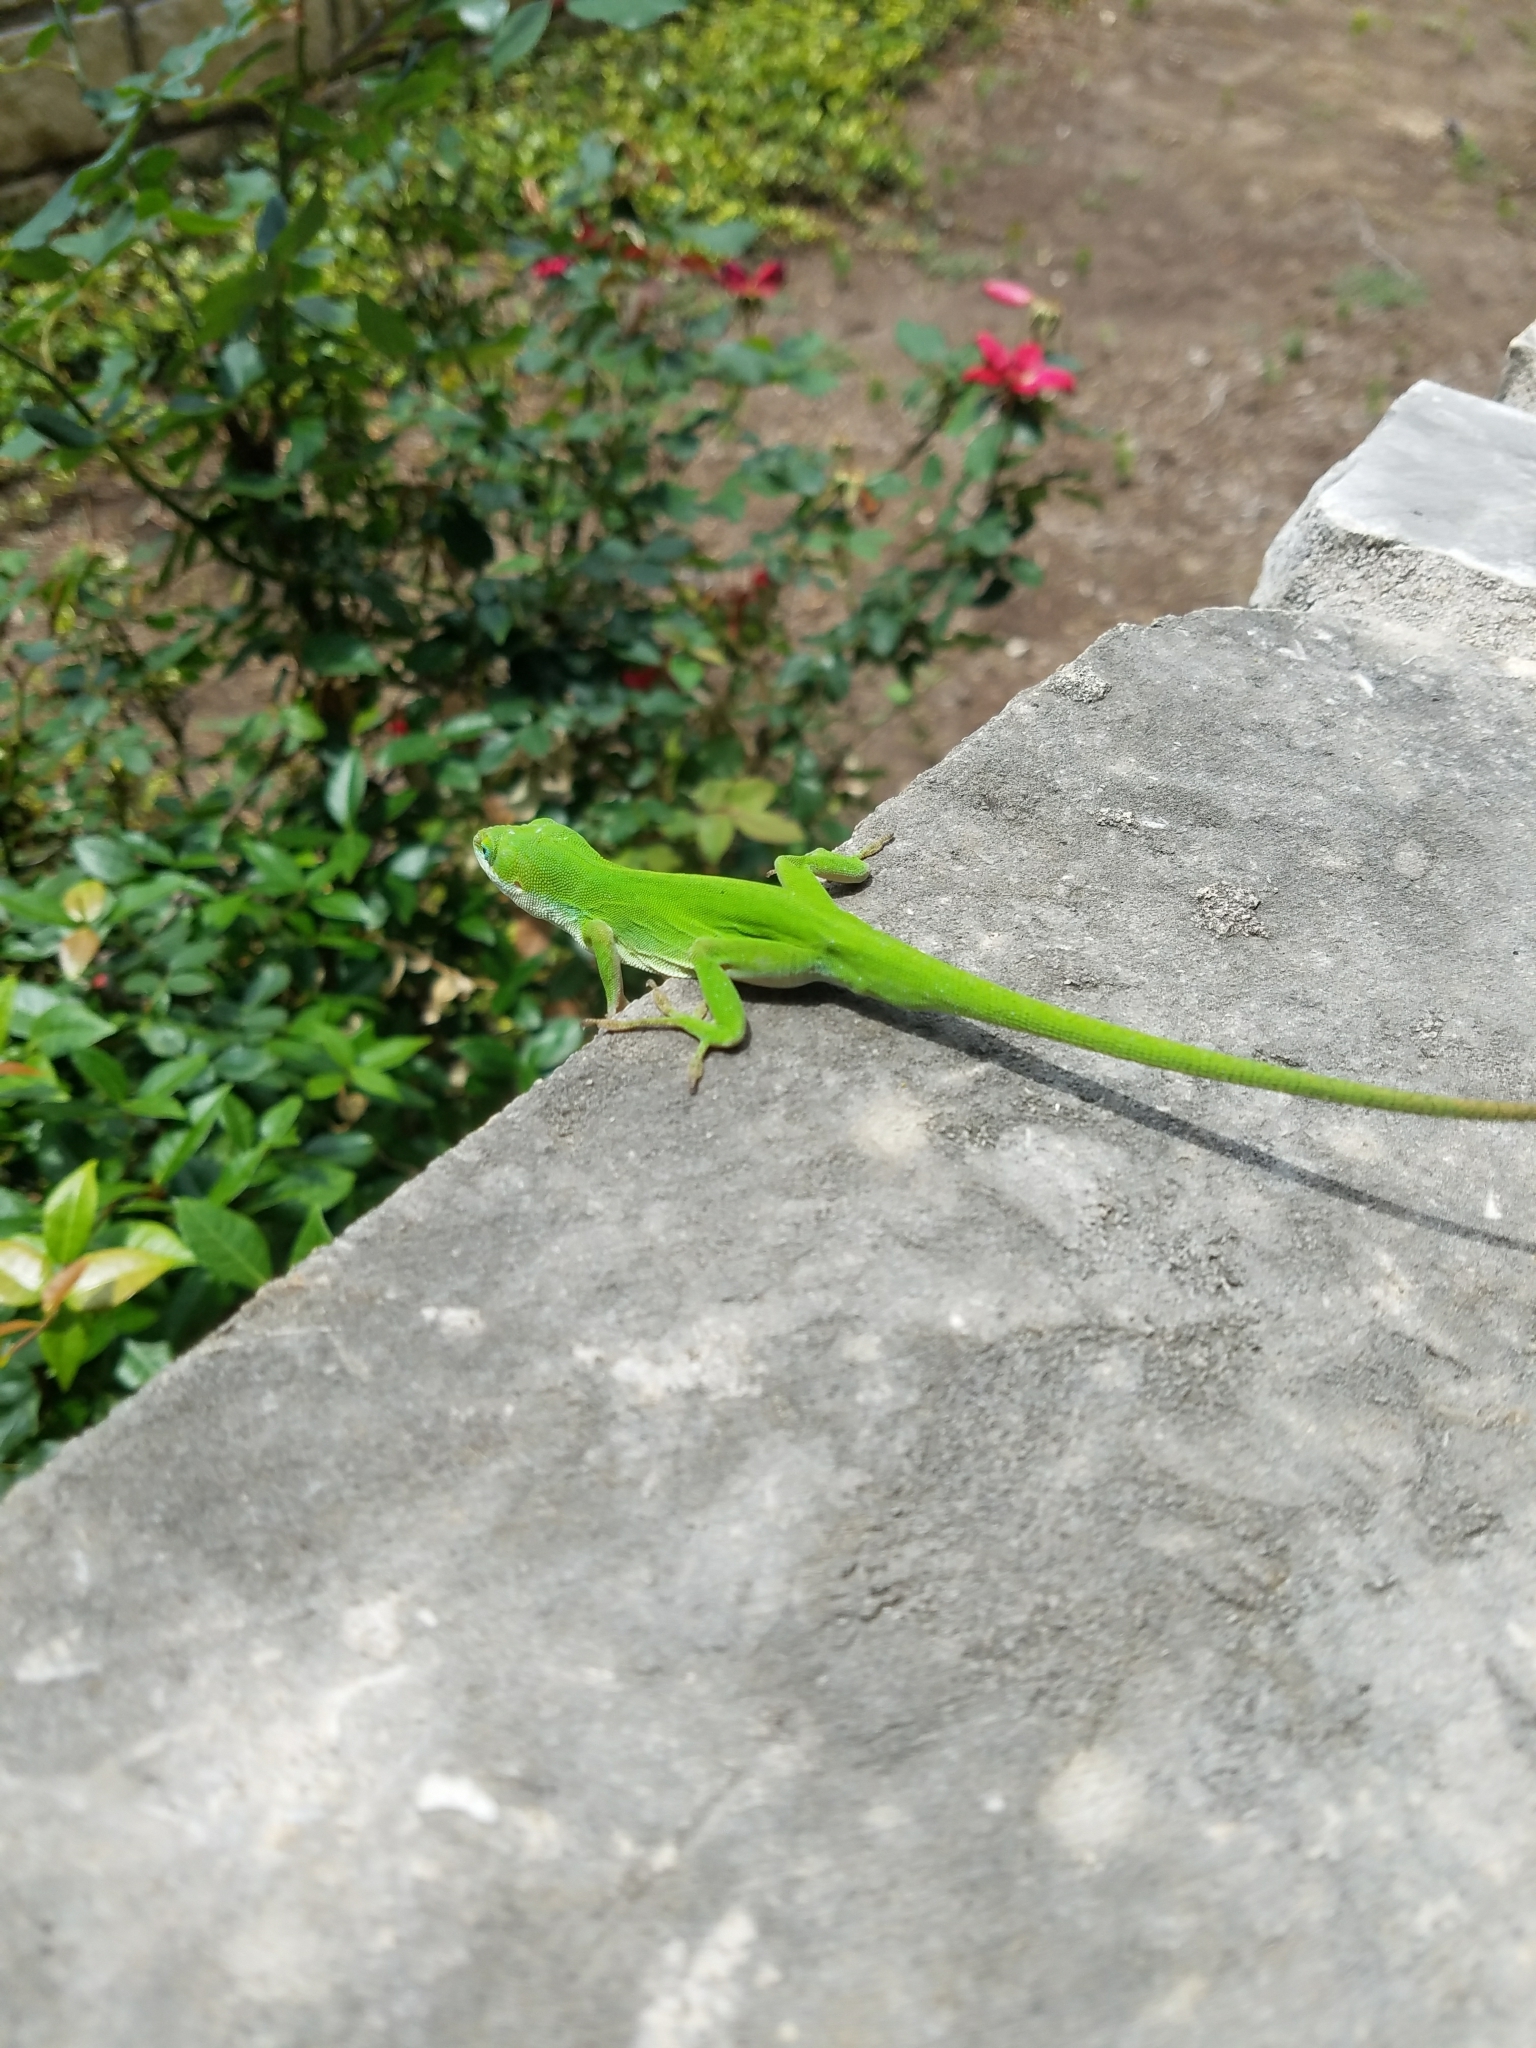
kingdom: Animalia
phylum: Chordata
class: Squamata
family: Dactyloidae
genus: Anolis
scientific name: Anolis carolinensis
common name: Green anole
